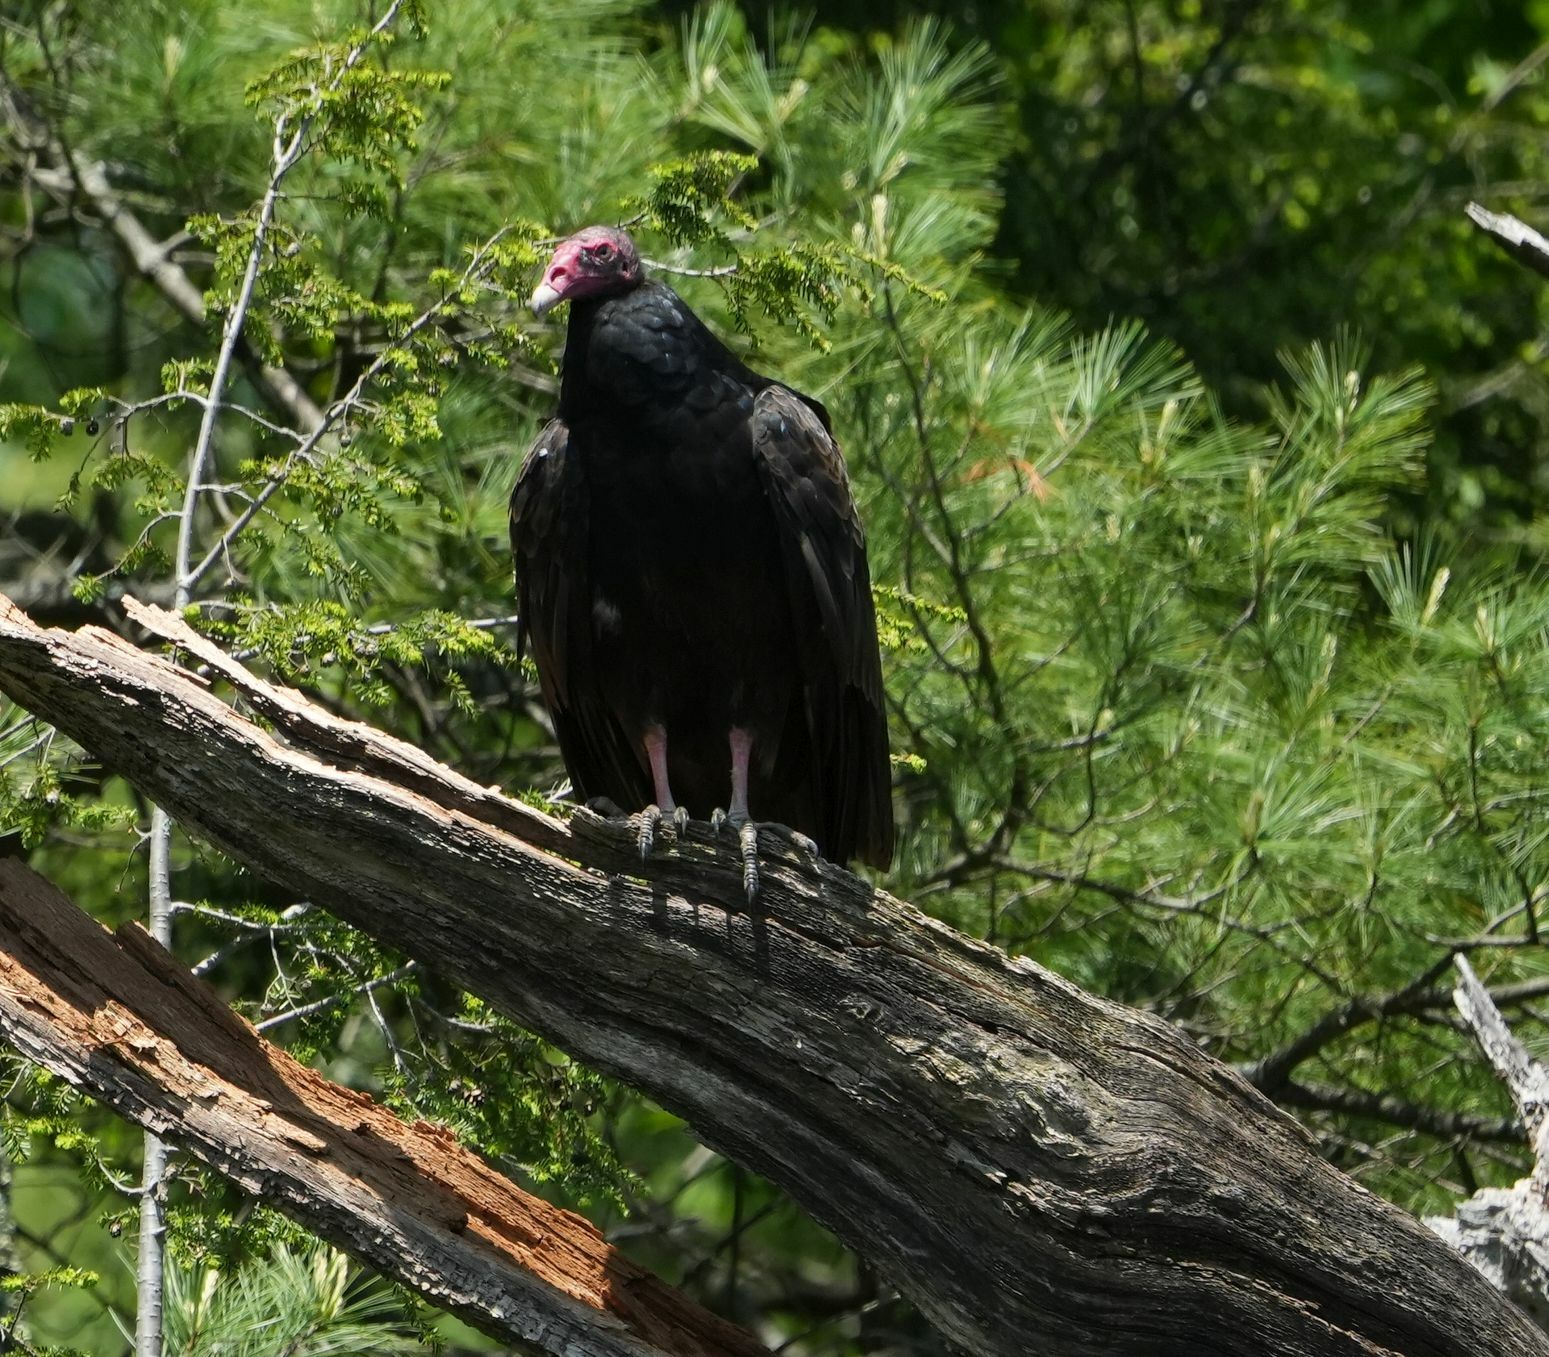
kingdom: Animalia
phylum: Chordata
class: Aves
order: Accipitriformes
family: Cathartidae
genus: Cathartes
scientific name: Cathartes aura
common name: Turkey vulture
